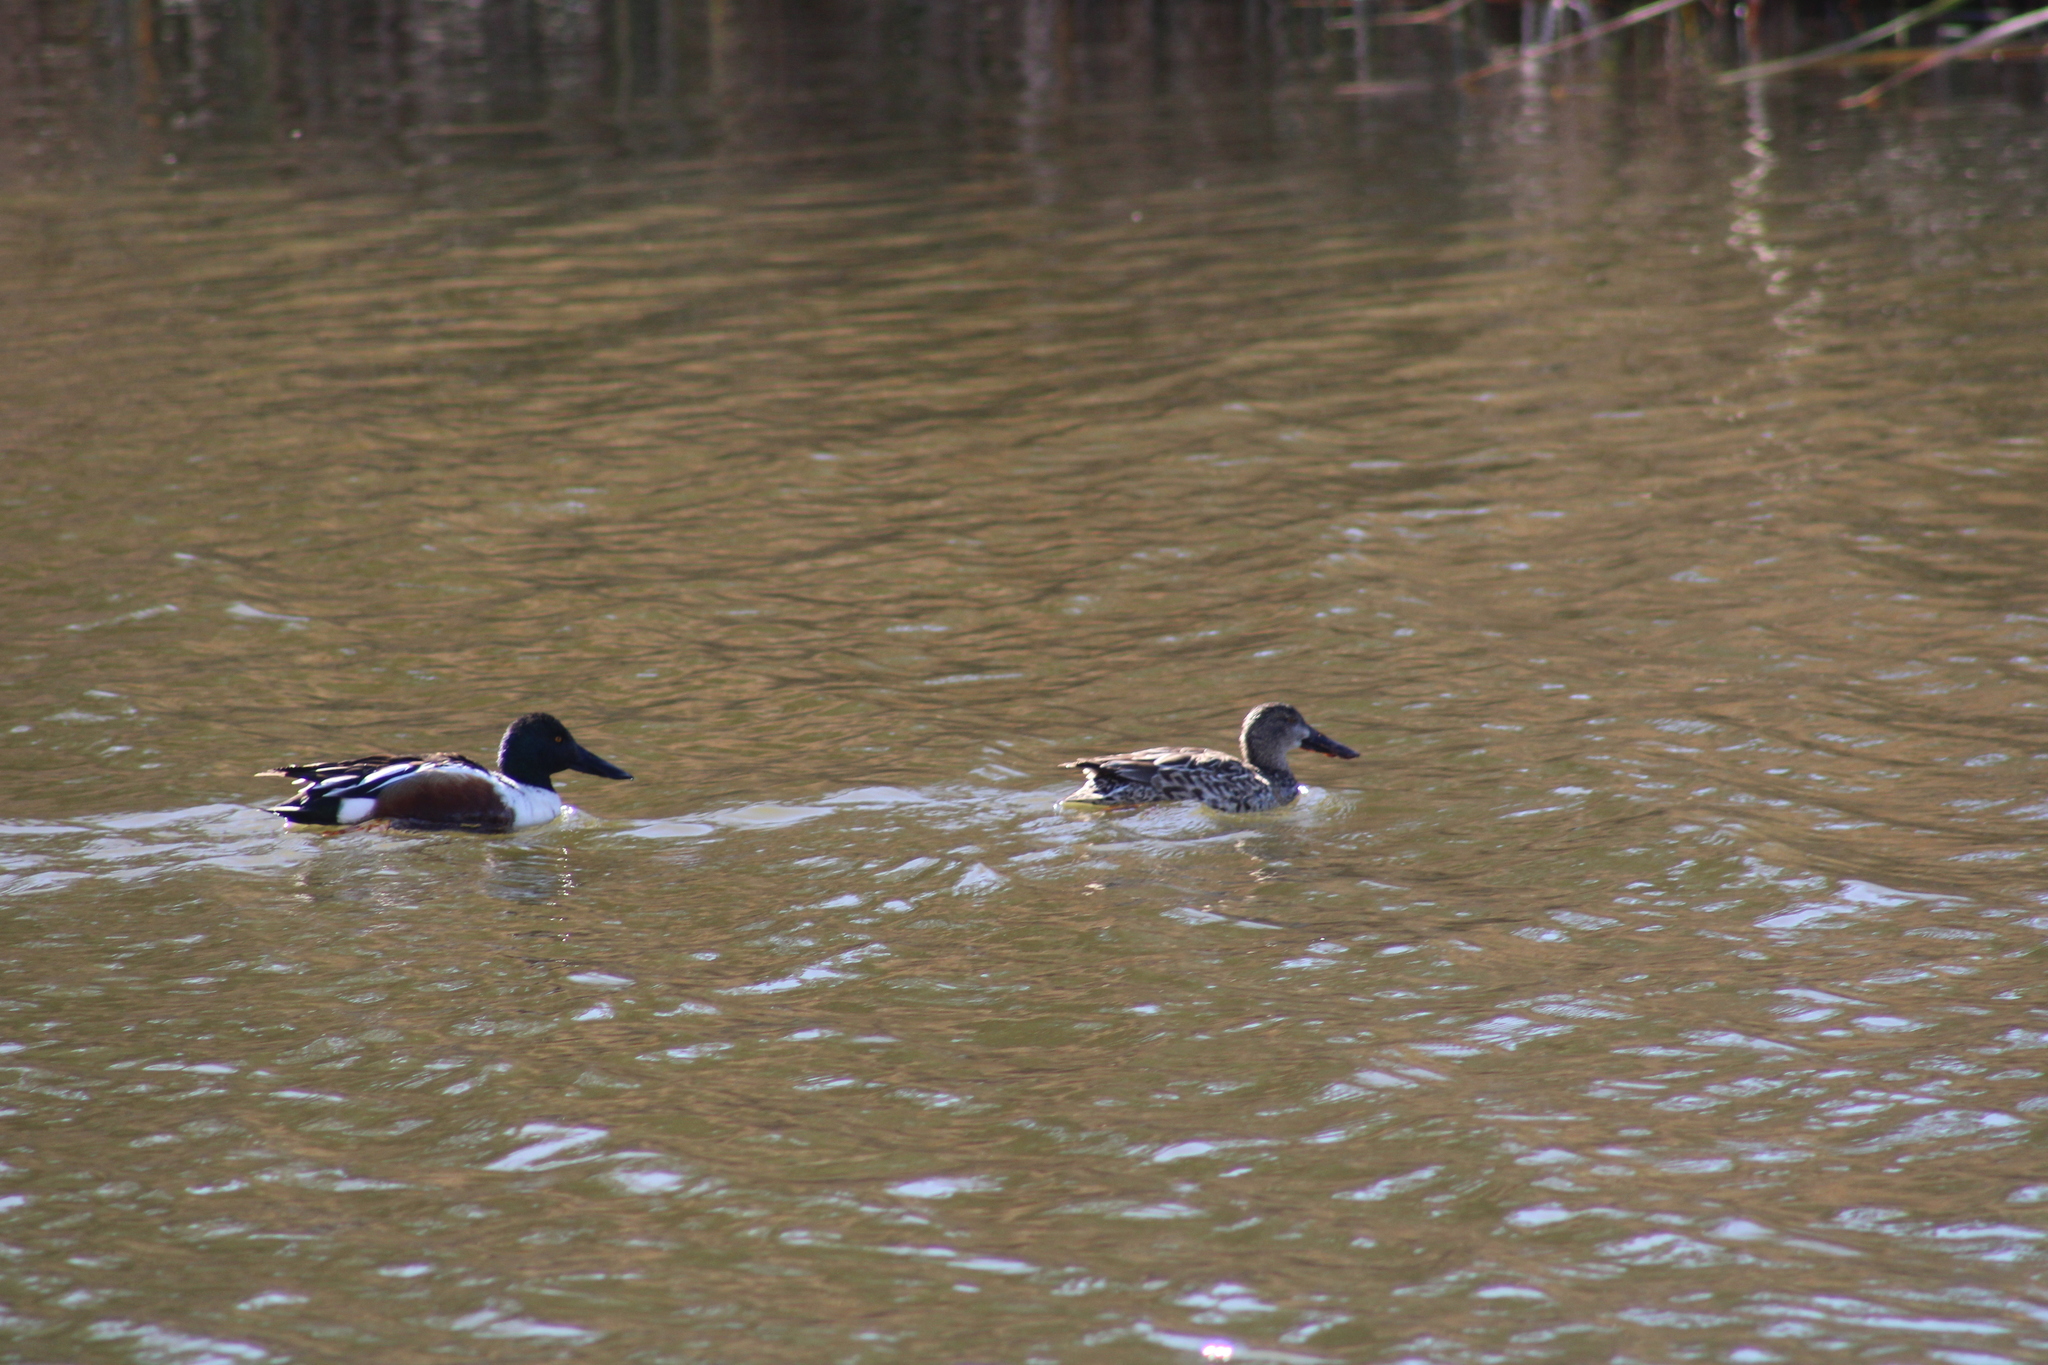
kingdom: Animalia
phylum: Chordata
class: Aves
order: Anseriformes
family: Anatidae
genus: Spatula
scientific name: Spatula clypeata
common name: Northern shoveler
